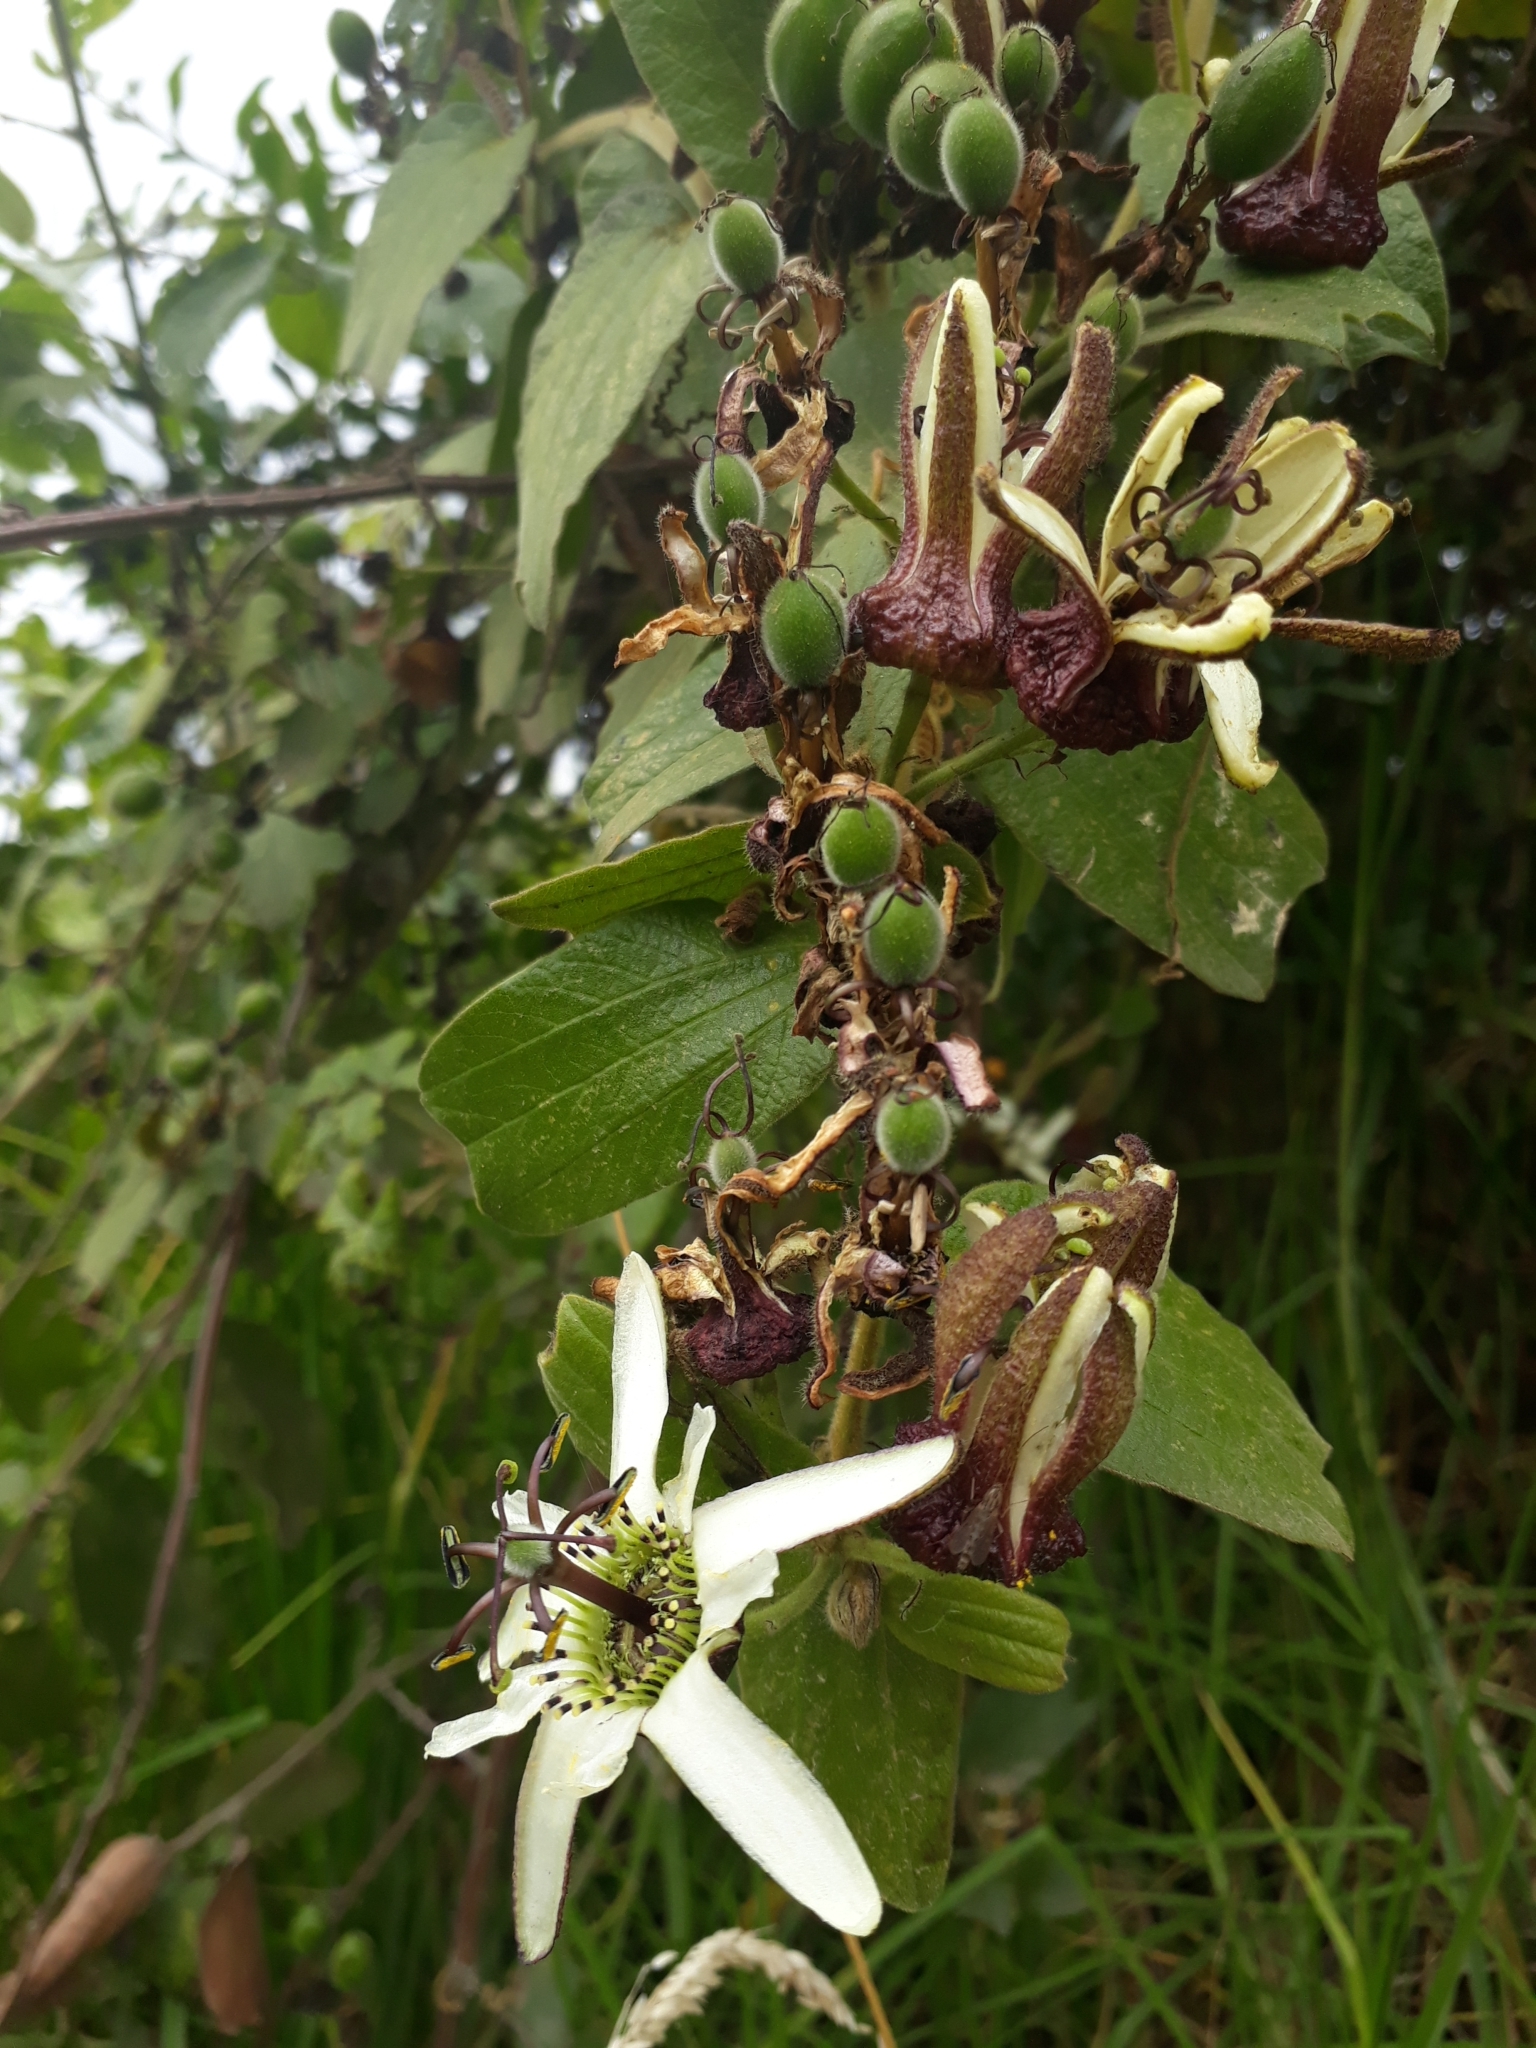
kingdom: Plantae
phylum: Tracheophyta
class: Magnoliopsida
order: Malpighiales
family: Passifloraceae
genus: Passiflora
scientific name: Passiflora bogotensis
